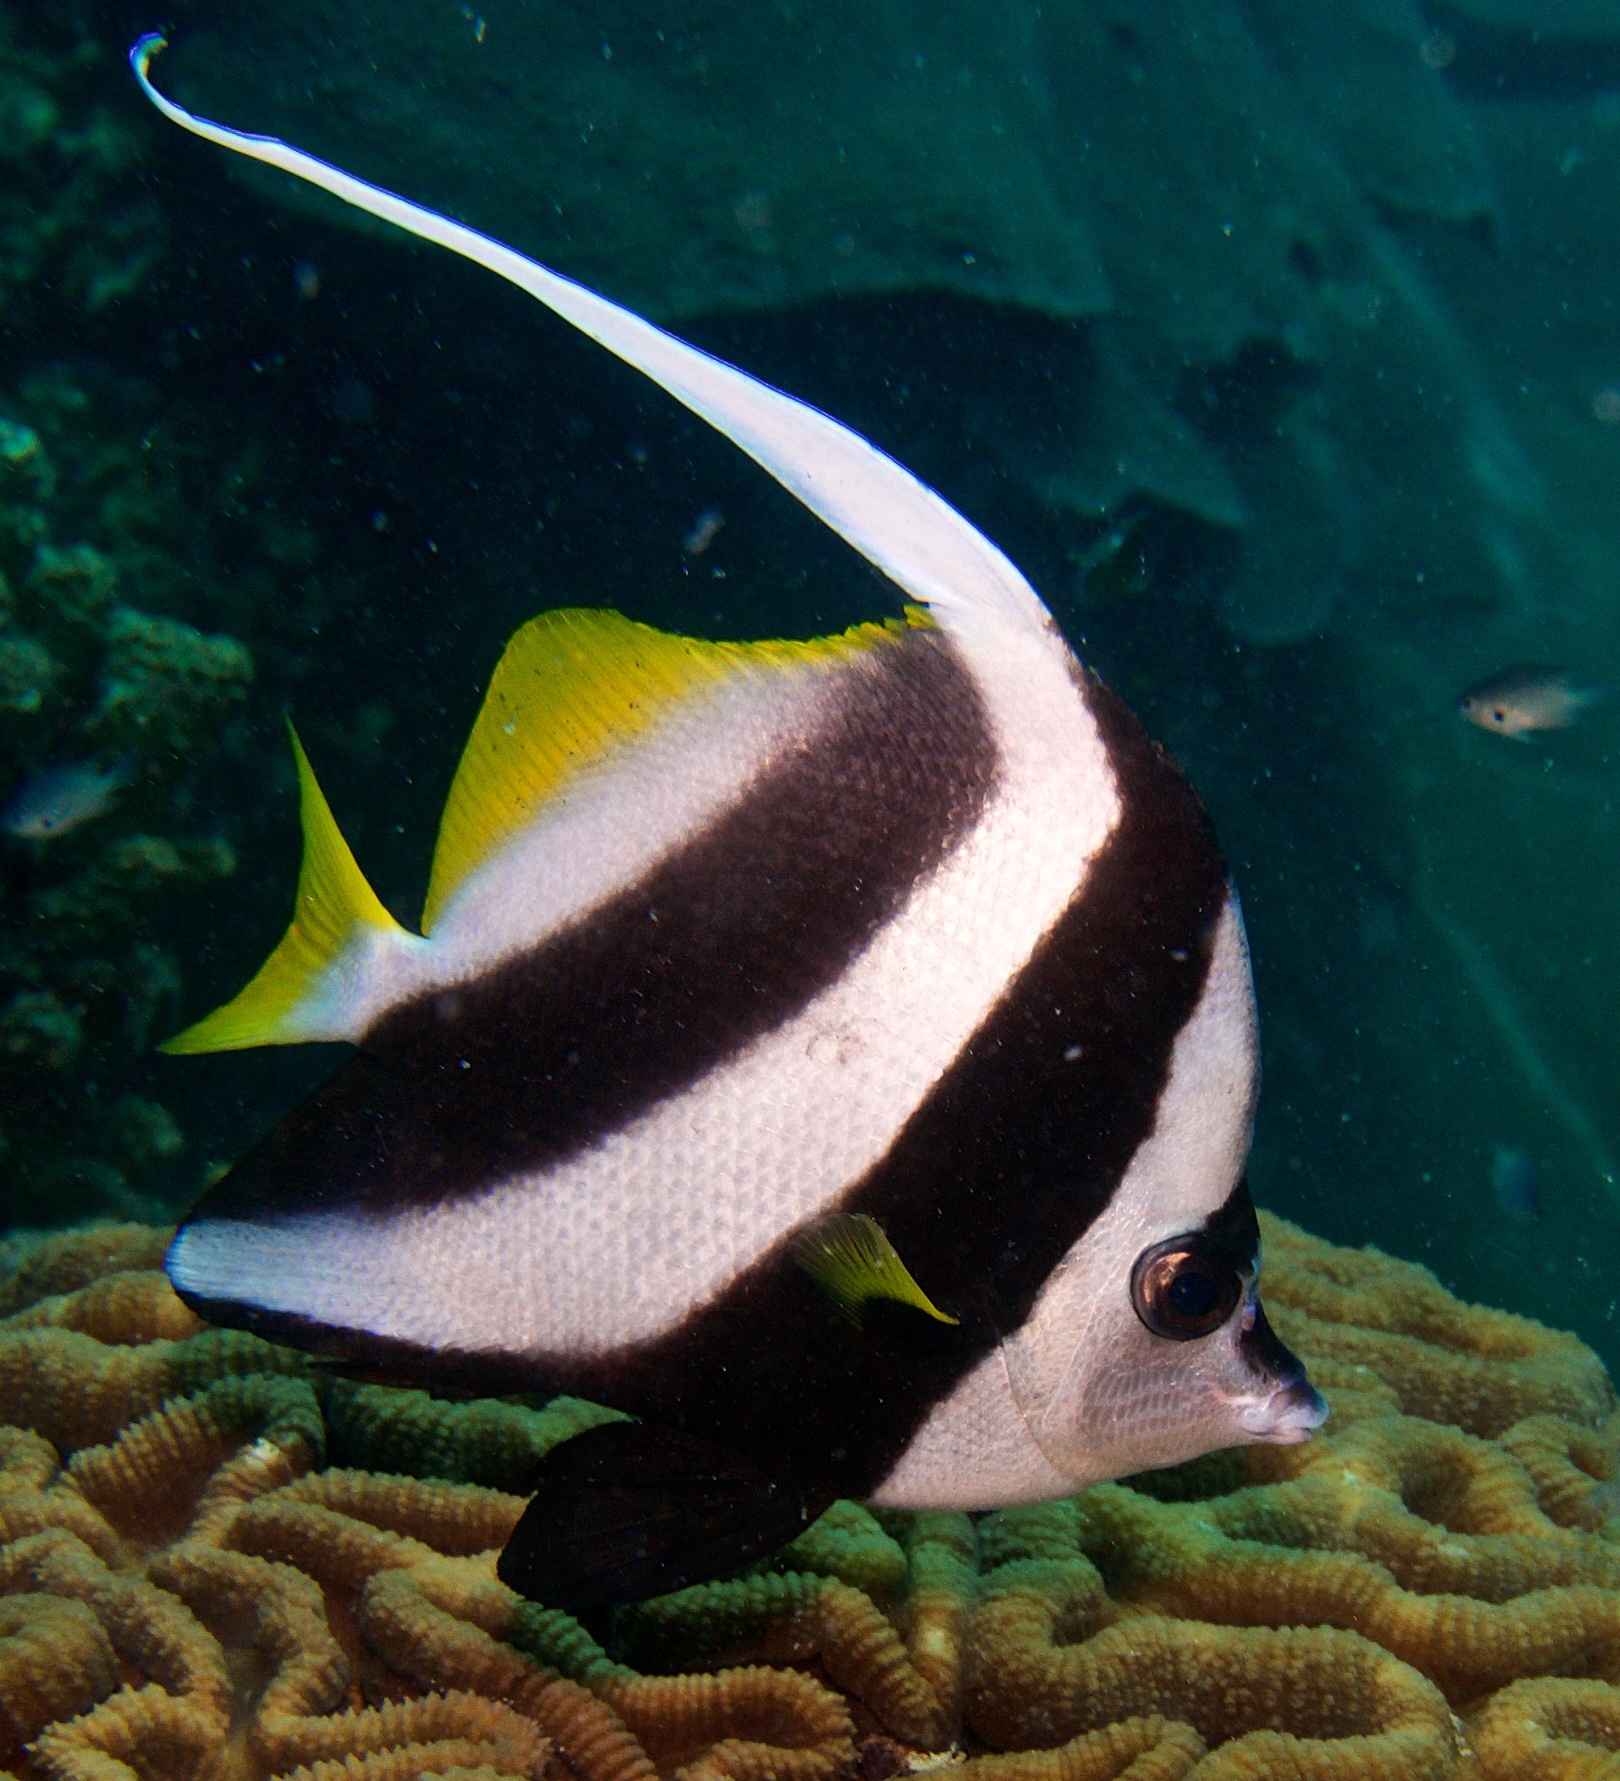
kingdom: Animalia
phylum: Chordata
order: Perciformes
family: Chaetodontidae
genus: Heniochus
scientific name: Heniochus acuminatus
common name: Pennant coralfish
